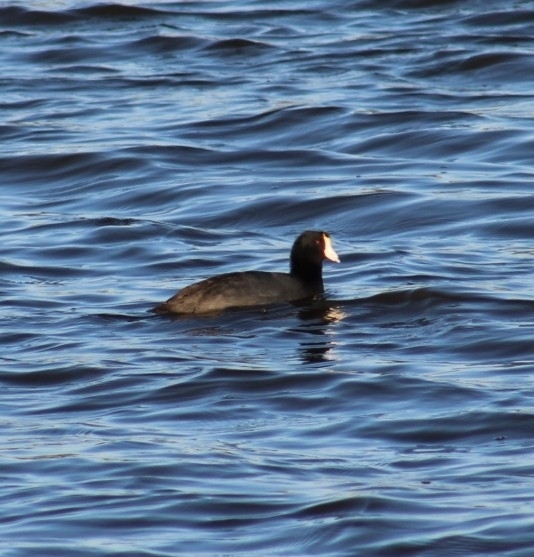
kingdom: Animalia
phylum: Chordata
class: Aves
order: Gruiformes
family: Rallidae
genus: Fulica
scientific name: Fulica americana
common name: American coot
